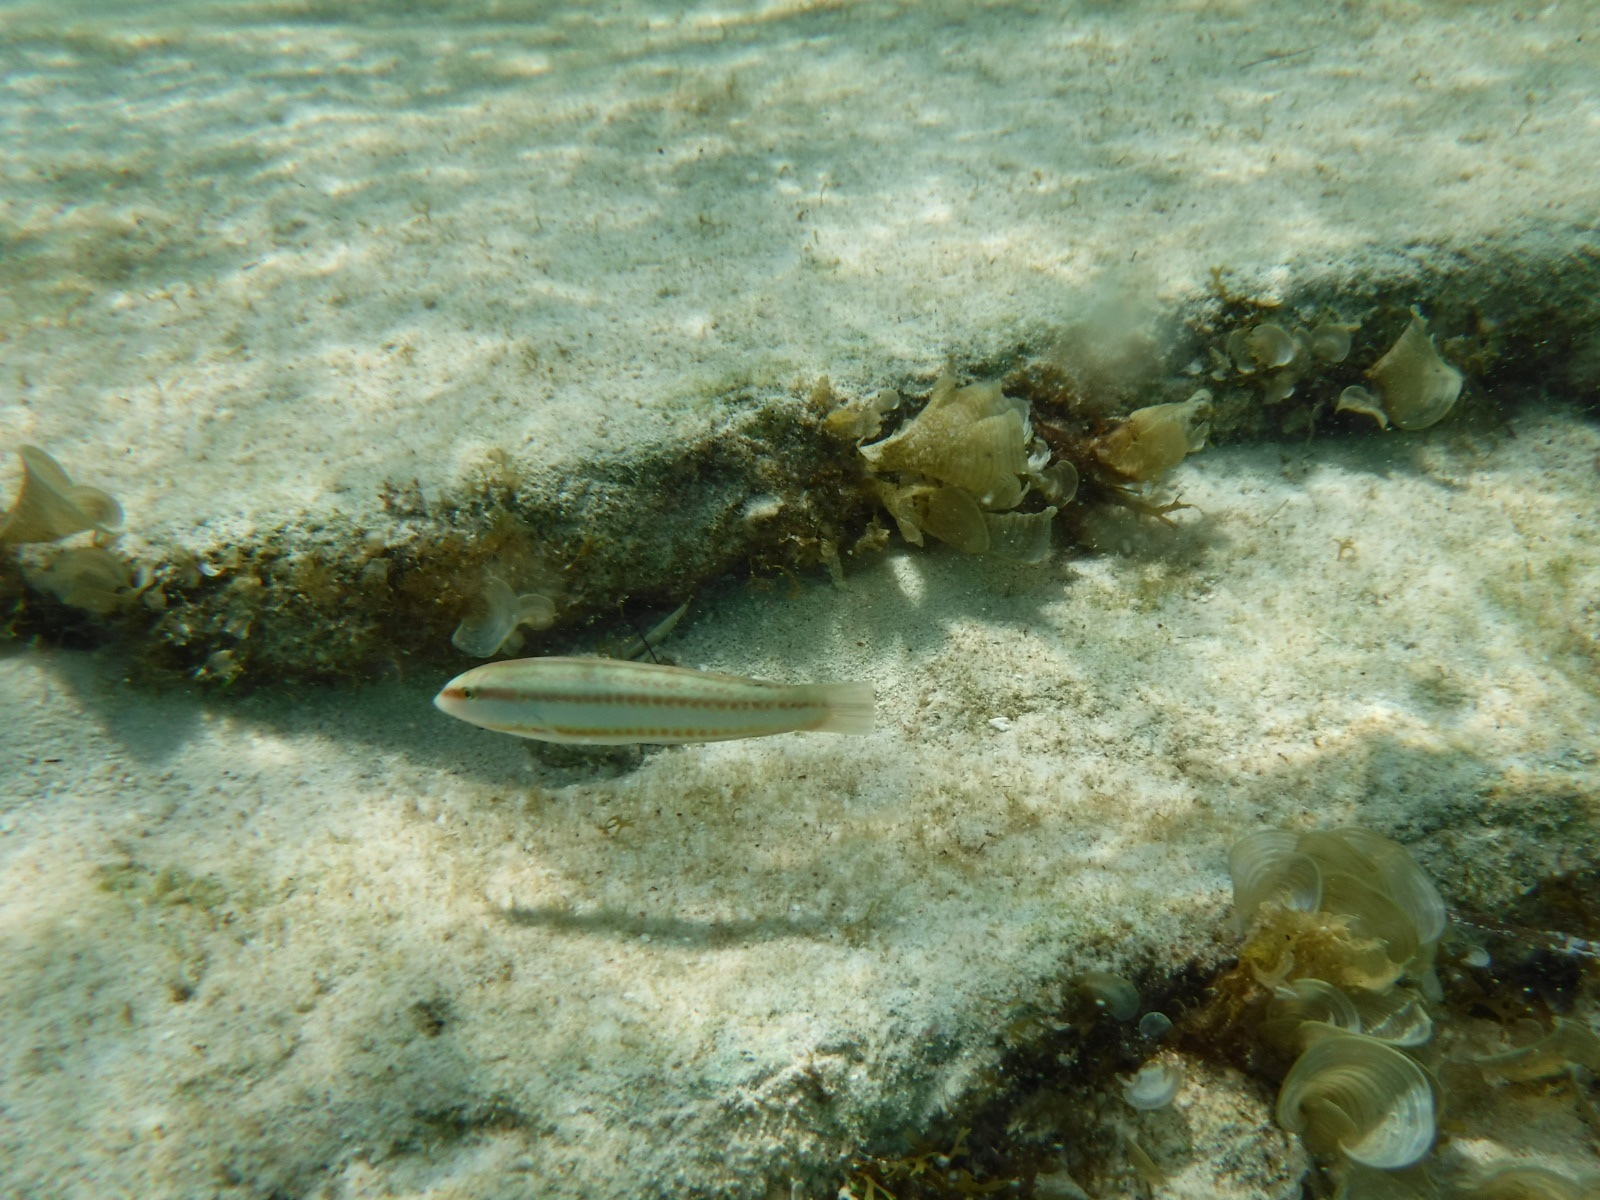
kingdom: Animalia
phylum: Chordata
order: Perciformes
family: Labridae
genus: Halichoeres
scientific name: Halichoeres bivittatus
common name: Slippery dick
